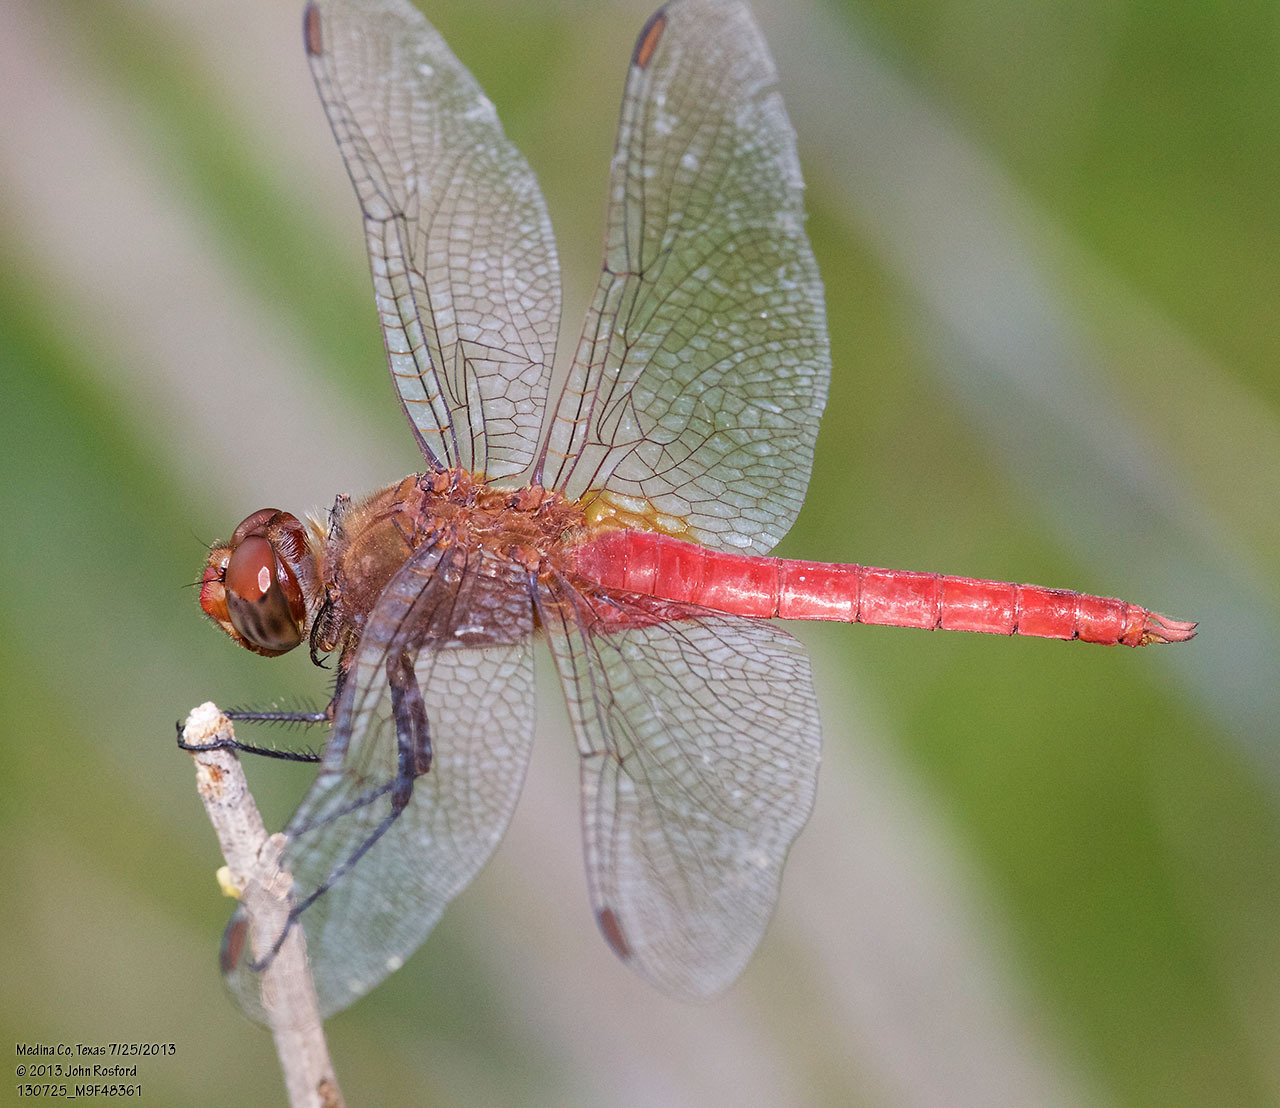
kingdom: Animalia
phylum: Arthropoda
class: Insecta
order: Odonata
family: Libellulidae
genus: Brachymesia
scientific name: Brachymesia furcata
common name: Red-taled pennant
